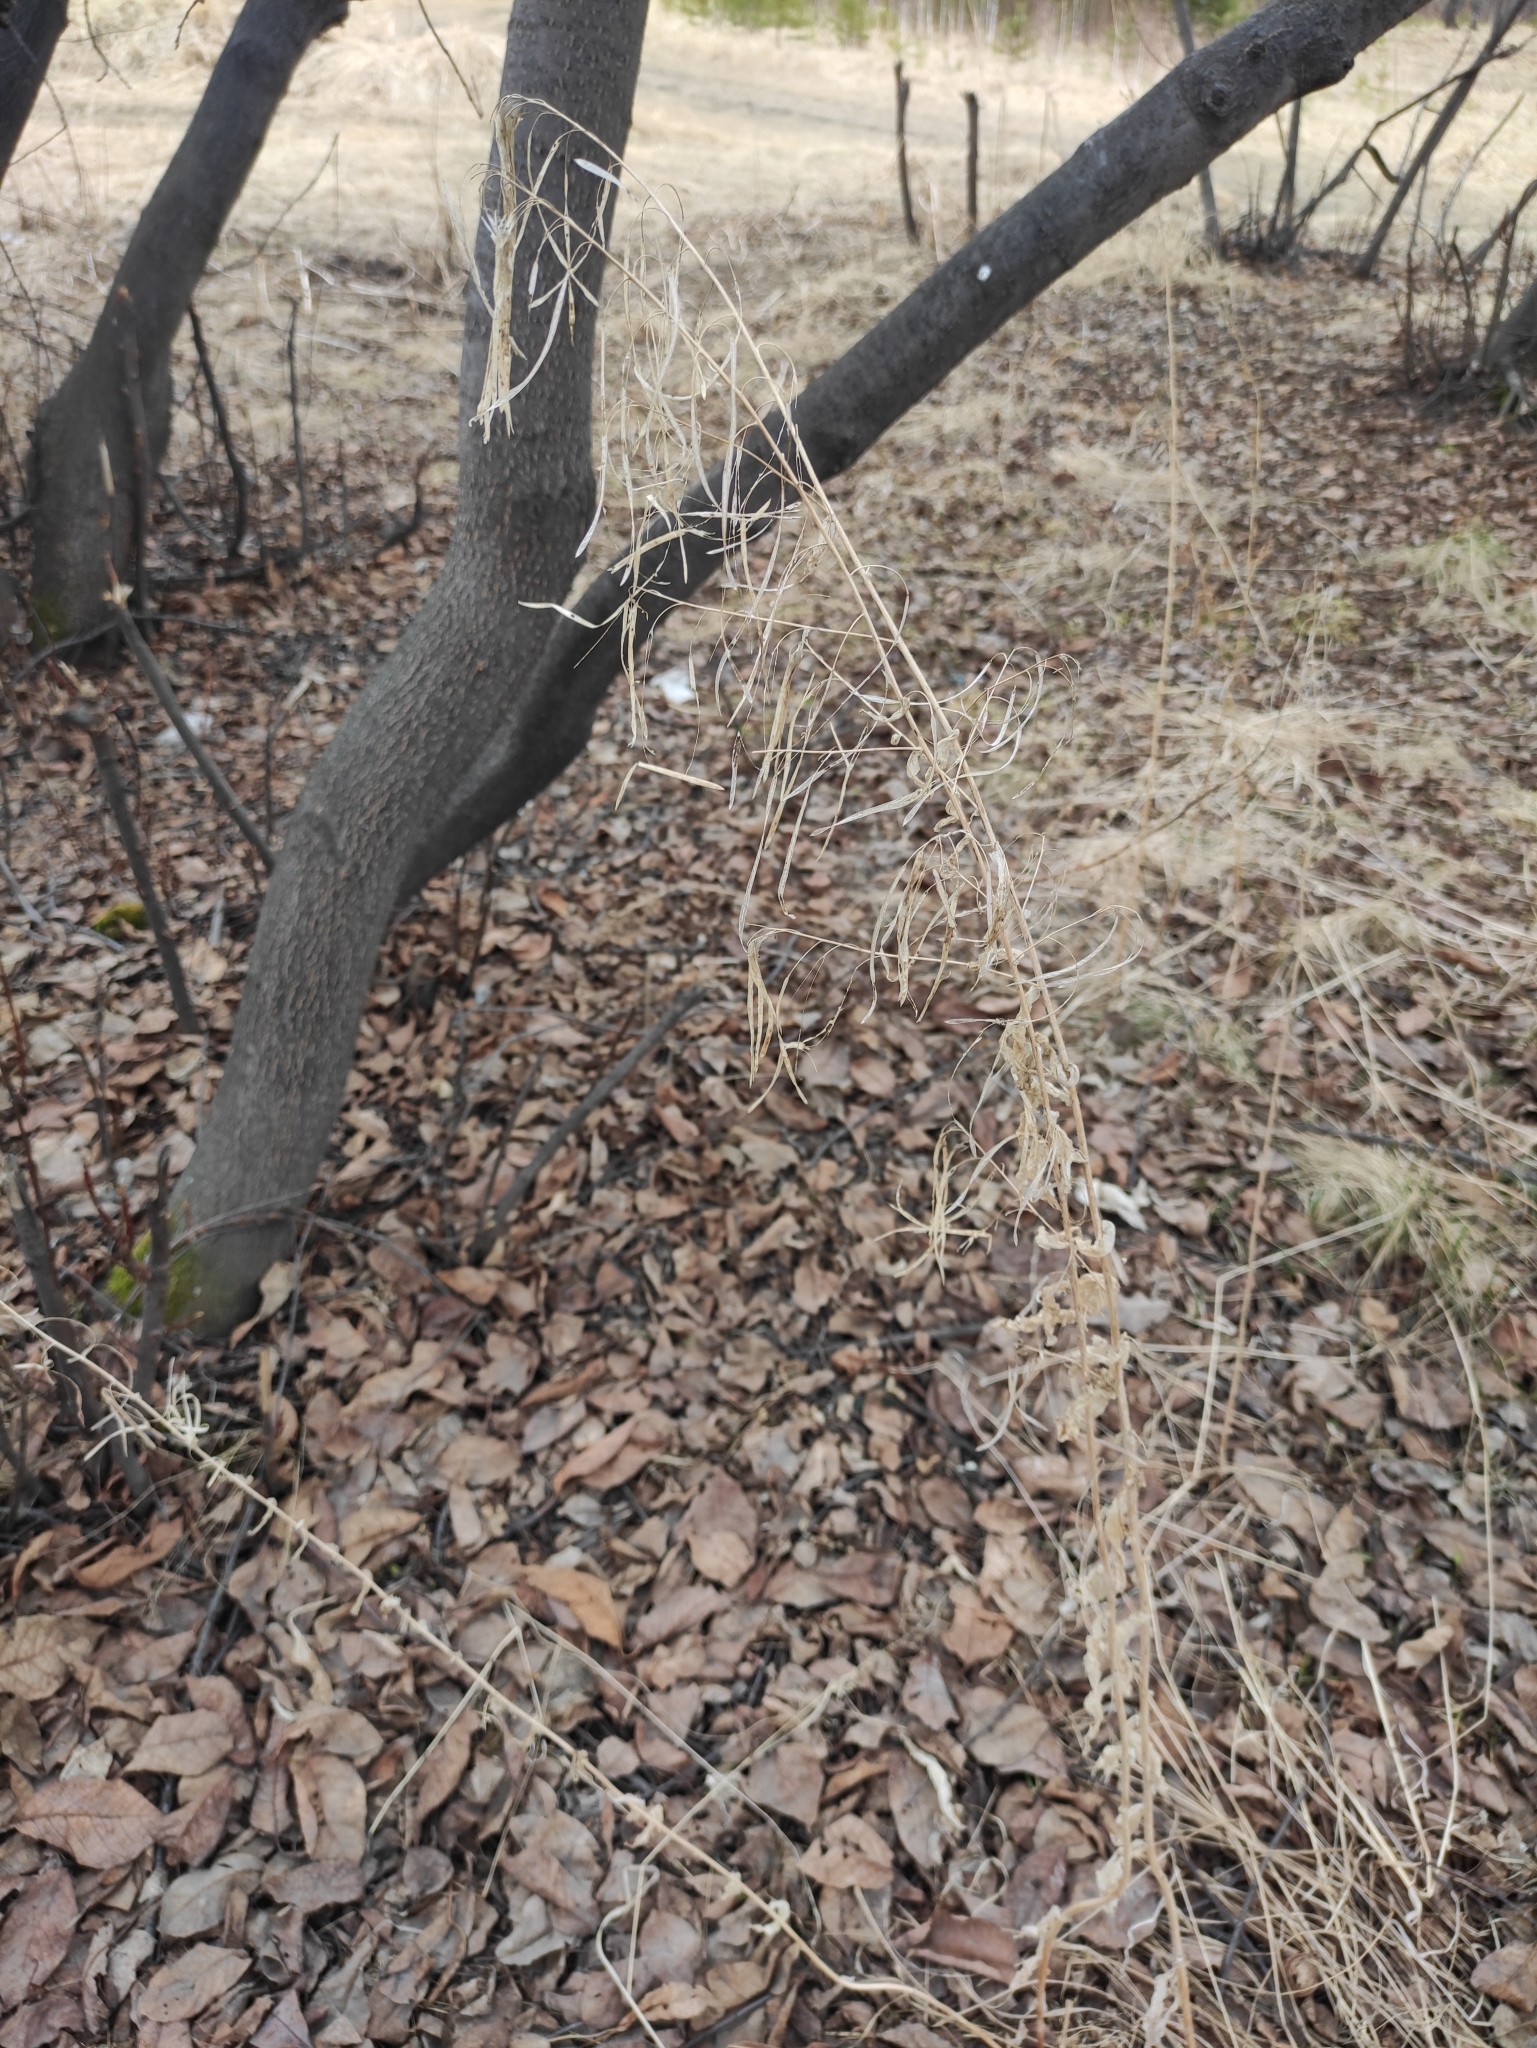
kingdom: Plantae
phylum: Tracheophyta
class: Magnoliopsida
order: Brassicales
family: Brassicaceae
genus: Catolobus
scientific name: Catolobus pendulus
